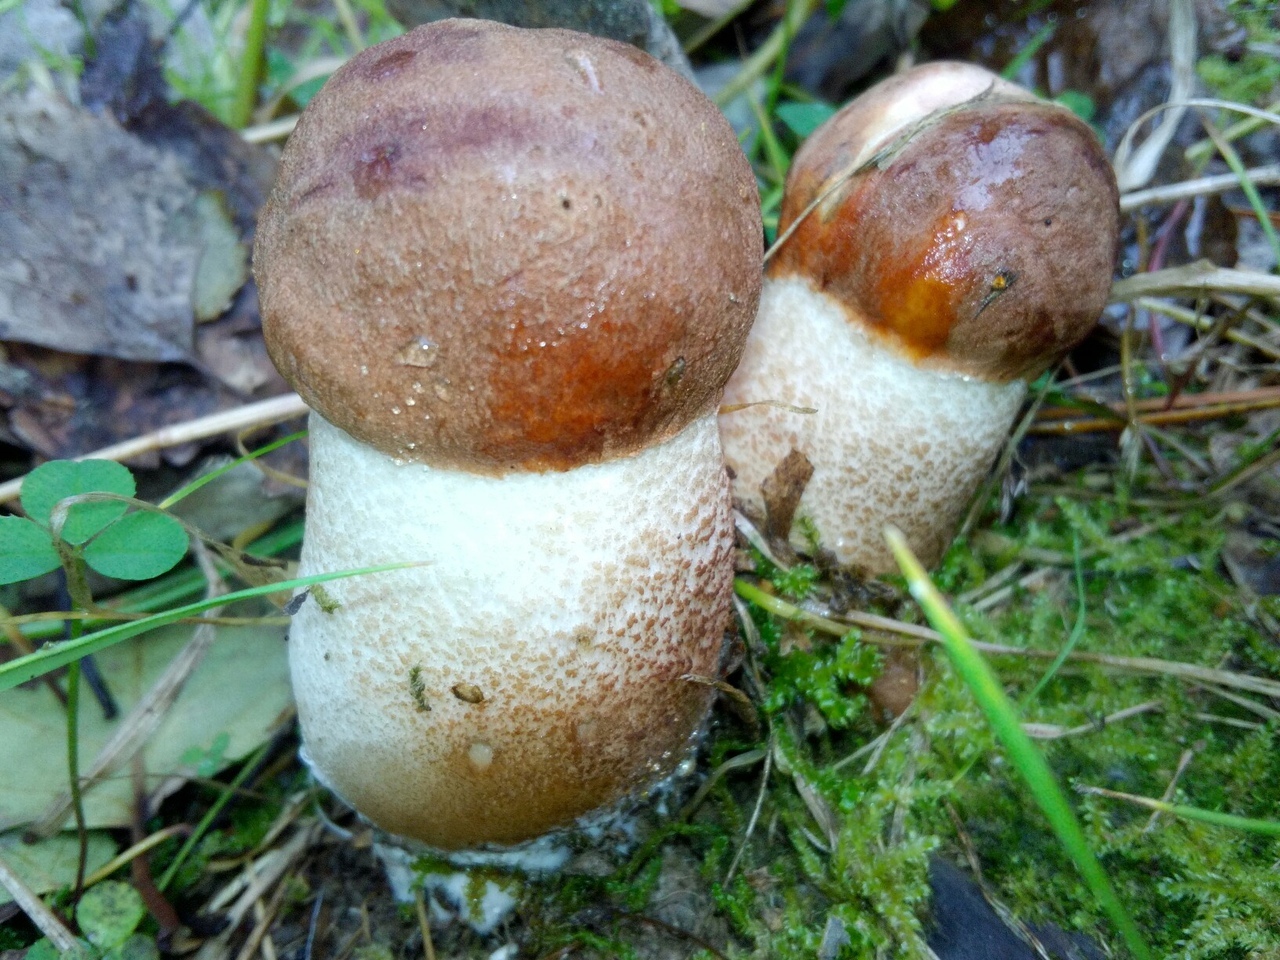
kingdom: Fungi
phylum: Basidiomycota
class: Agaricomycetes
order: Boletales
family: Boletaceae
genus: Leccinum
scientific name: Leccinum aurantiacum
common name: Orange bolete
